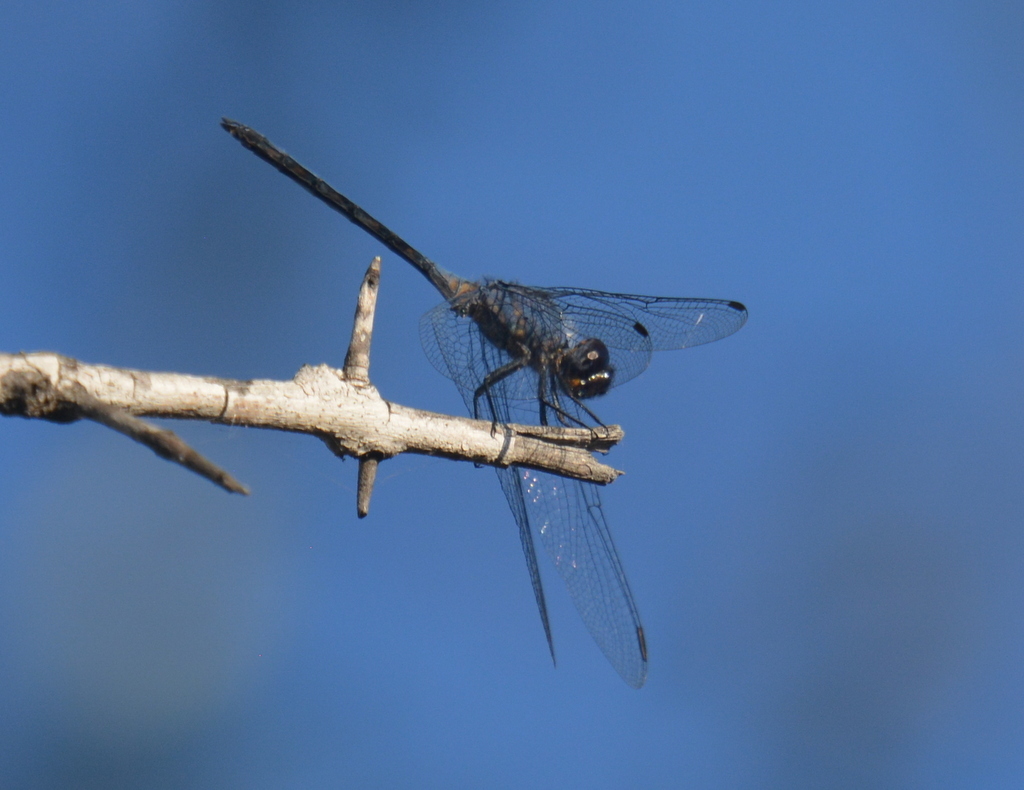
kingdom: Animalia
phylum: Arthropoda
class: Insecta
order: Odonata
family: Libellulidae
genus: Trithemis
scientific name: Trithemis aconita
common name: Halfshade dropwing
